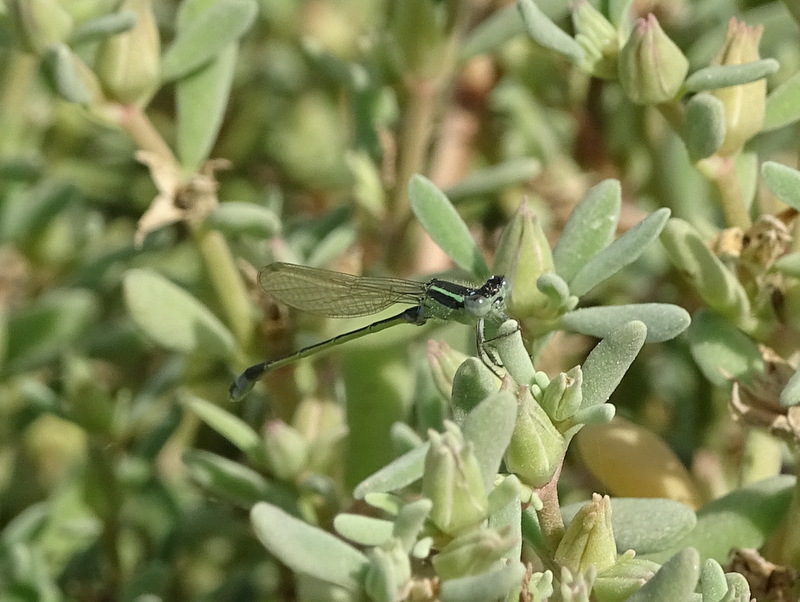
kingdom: Animalia
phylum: Arthropoda
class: Insecta
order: Odonata
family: Coenagrionidae
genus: Ischnura
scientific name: Ischnura senegalensis
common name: Tropical bluetail
